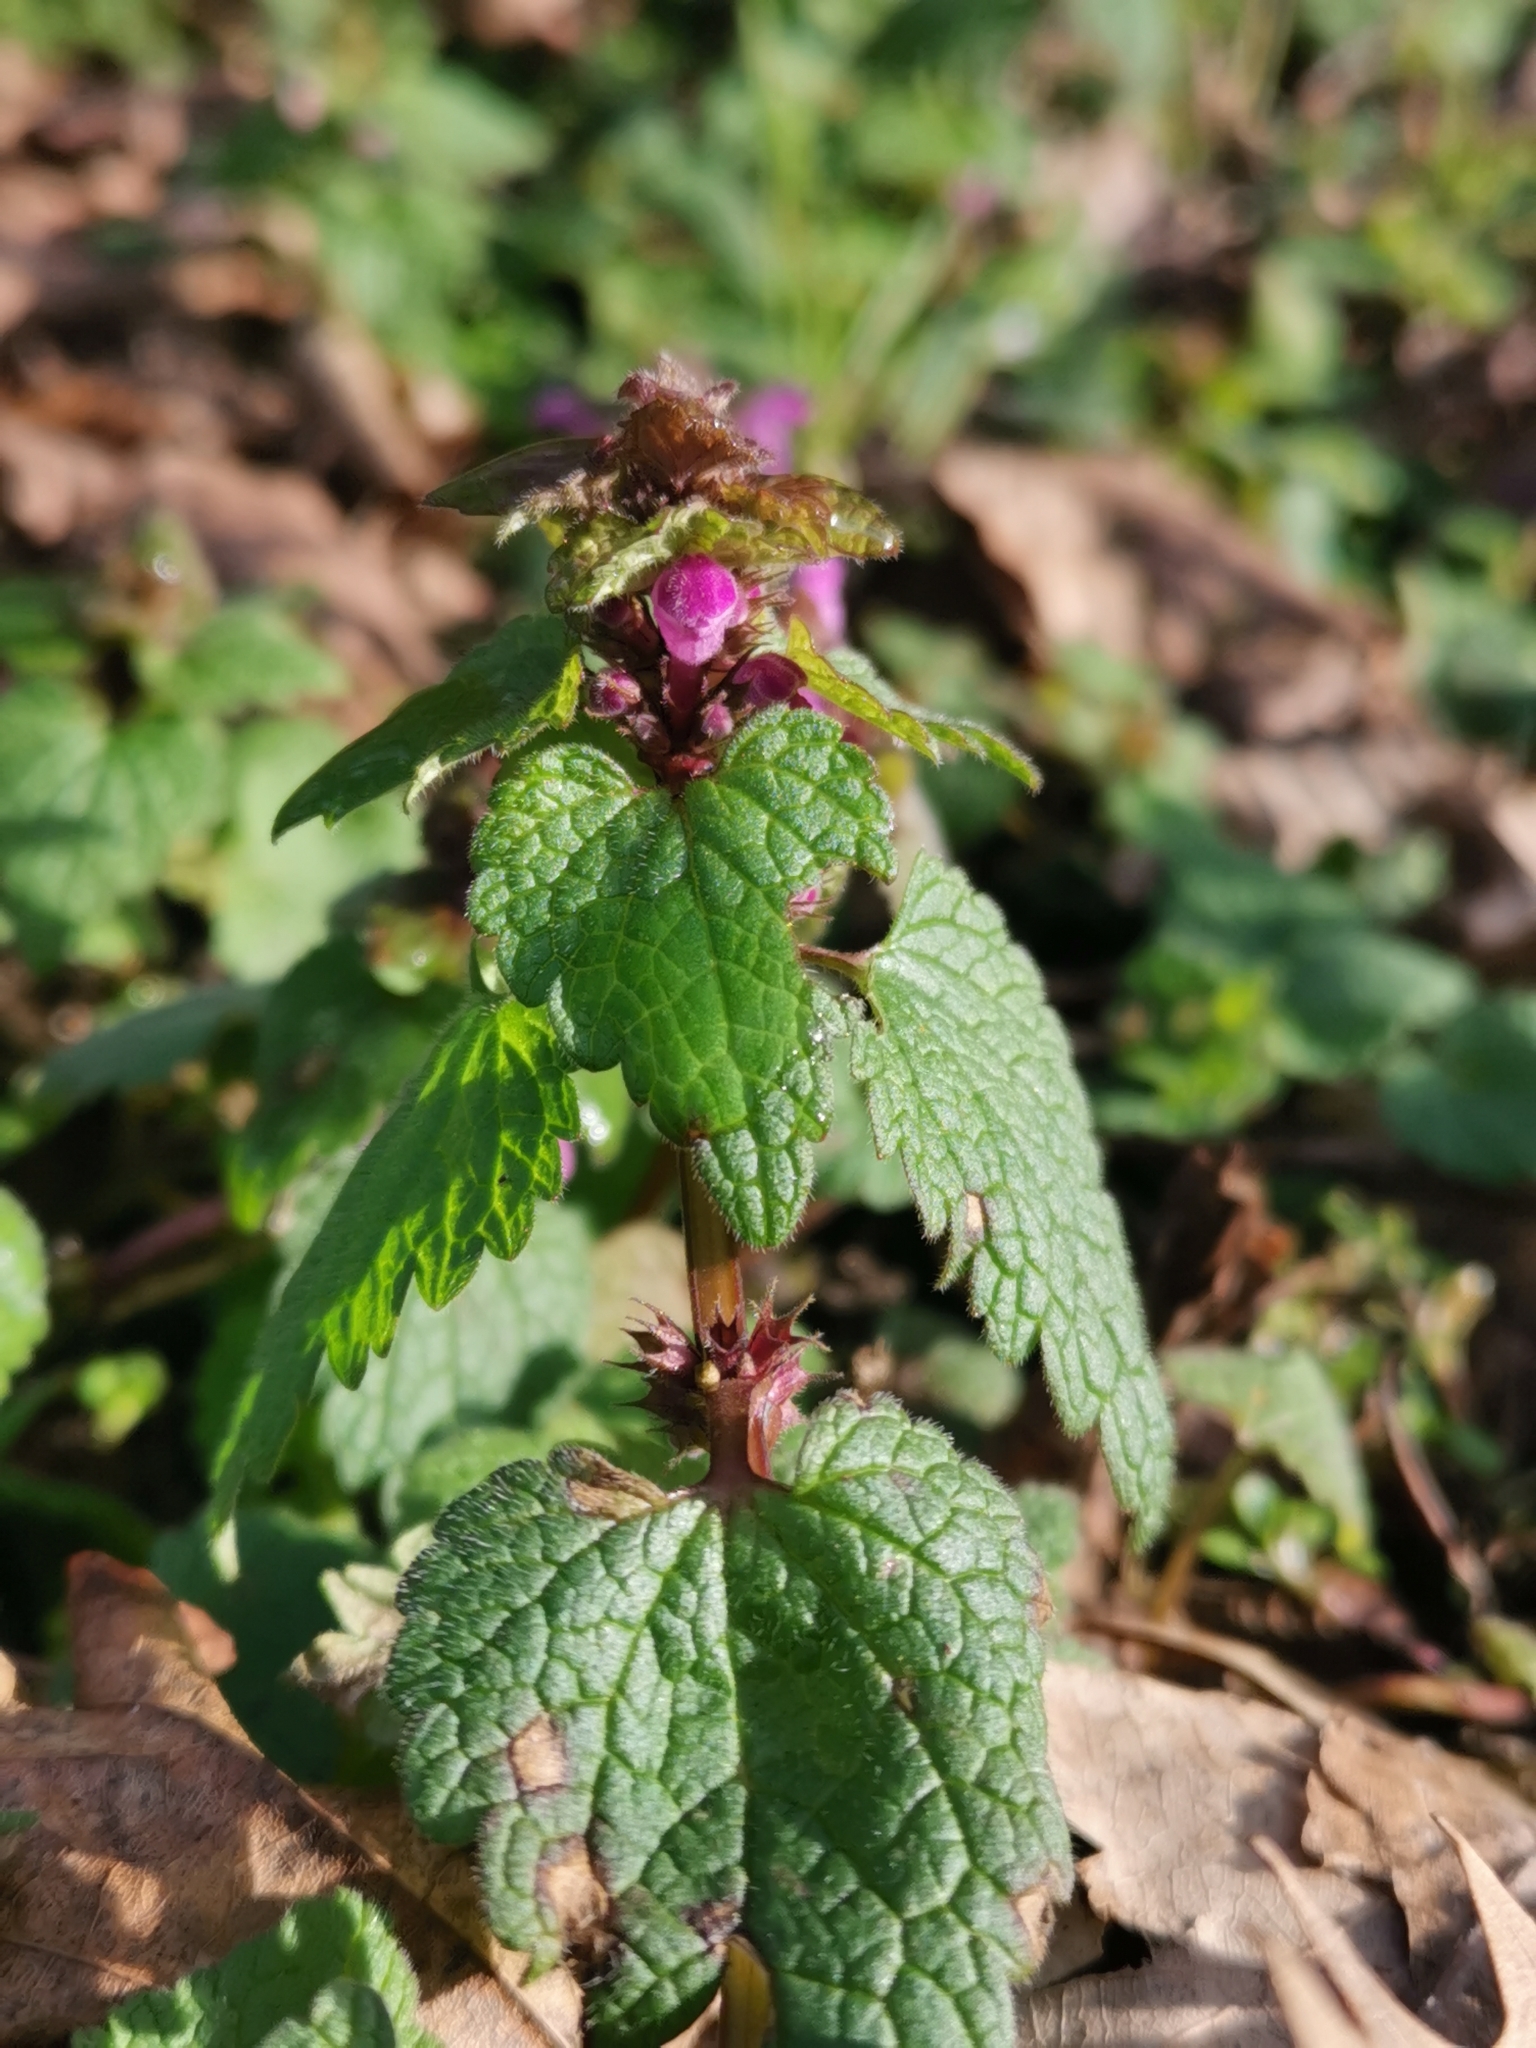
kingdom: Plantae
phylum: Tracheophyta
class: Magnoliopsida
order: Lamiales
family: Lamiaceae
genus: Lamium
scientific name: Lamium purpureum
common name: Red dead-nettle
